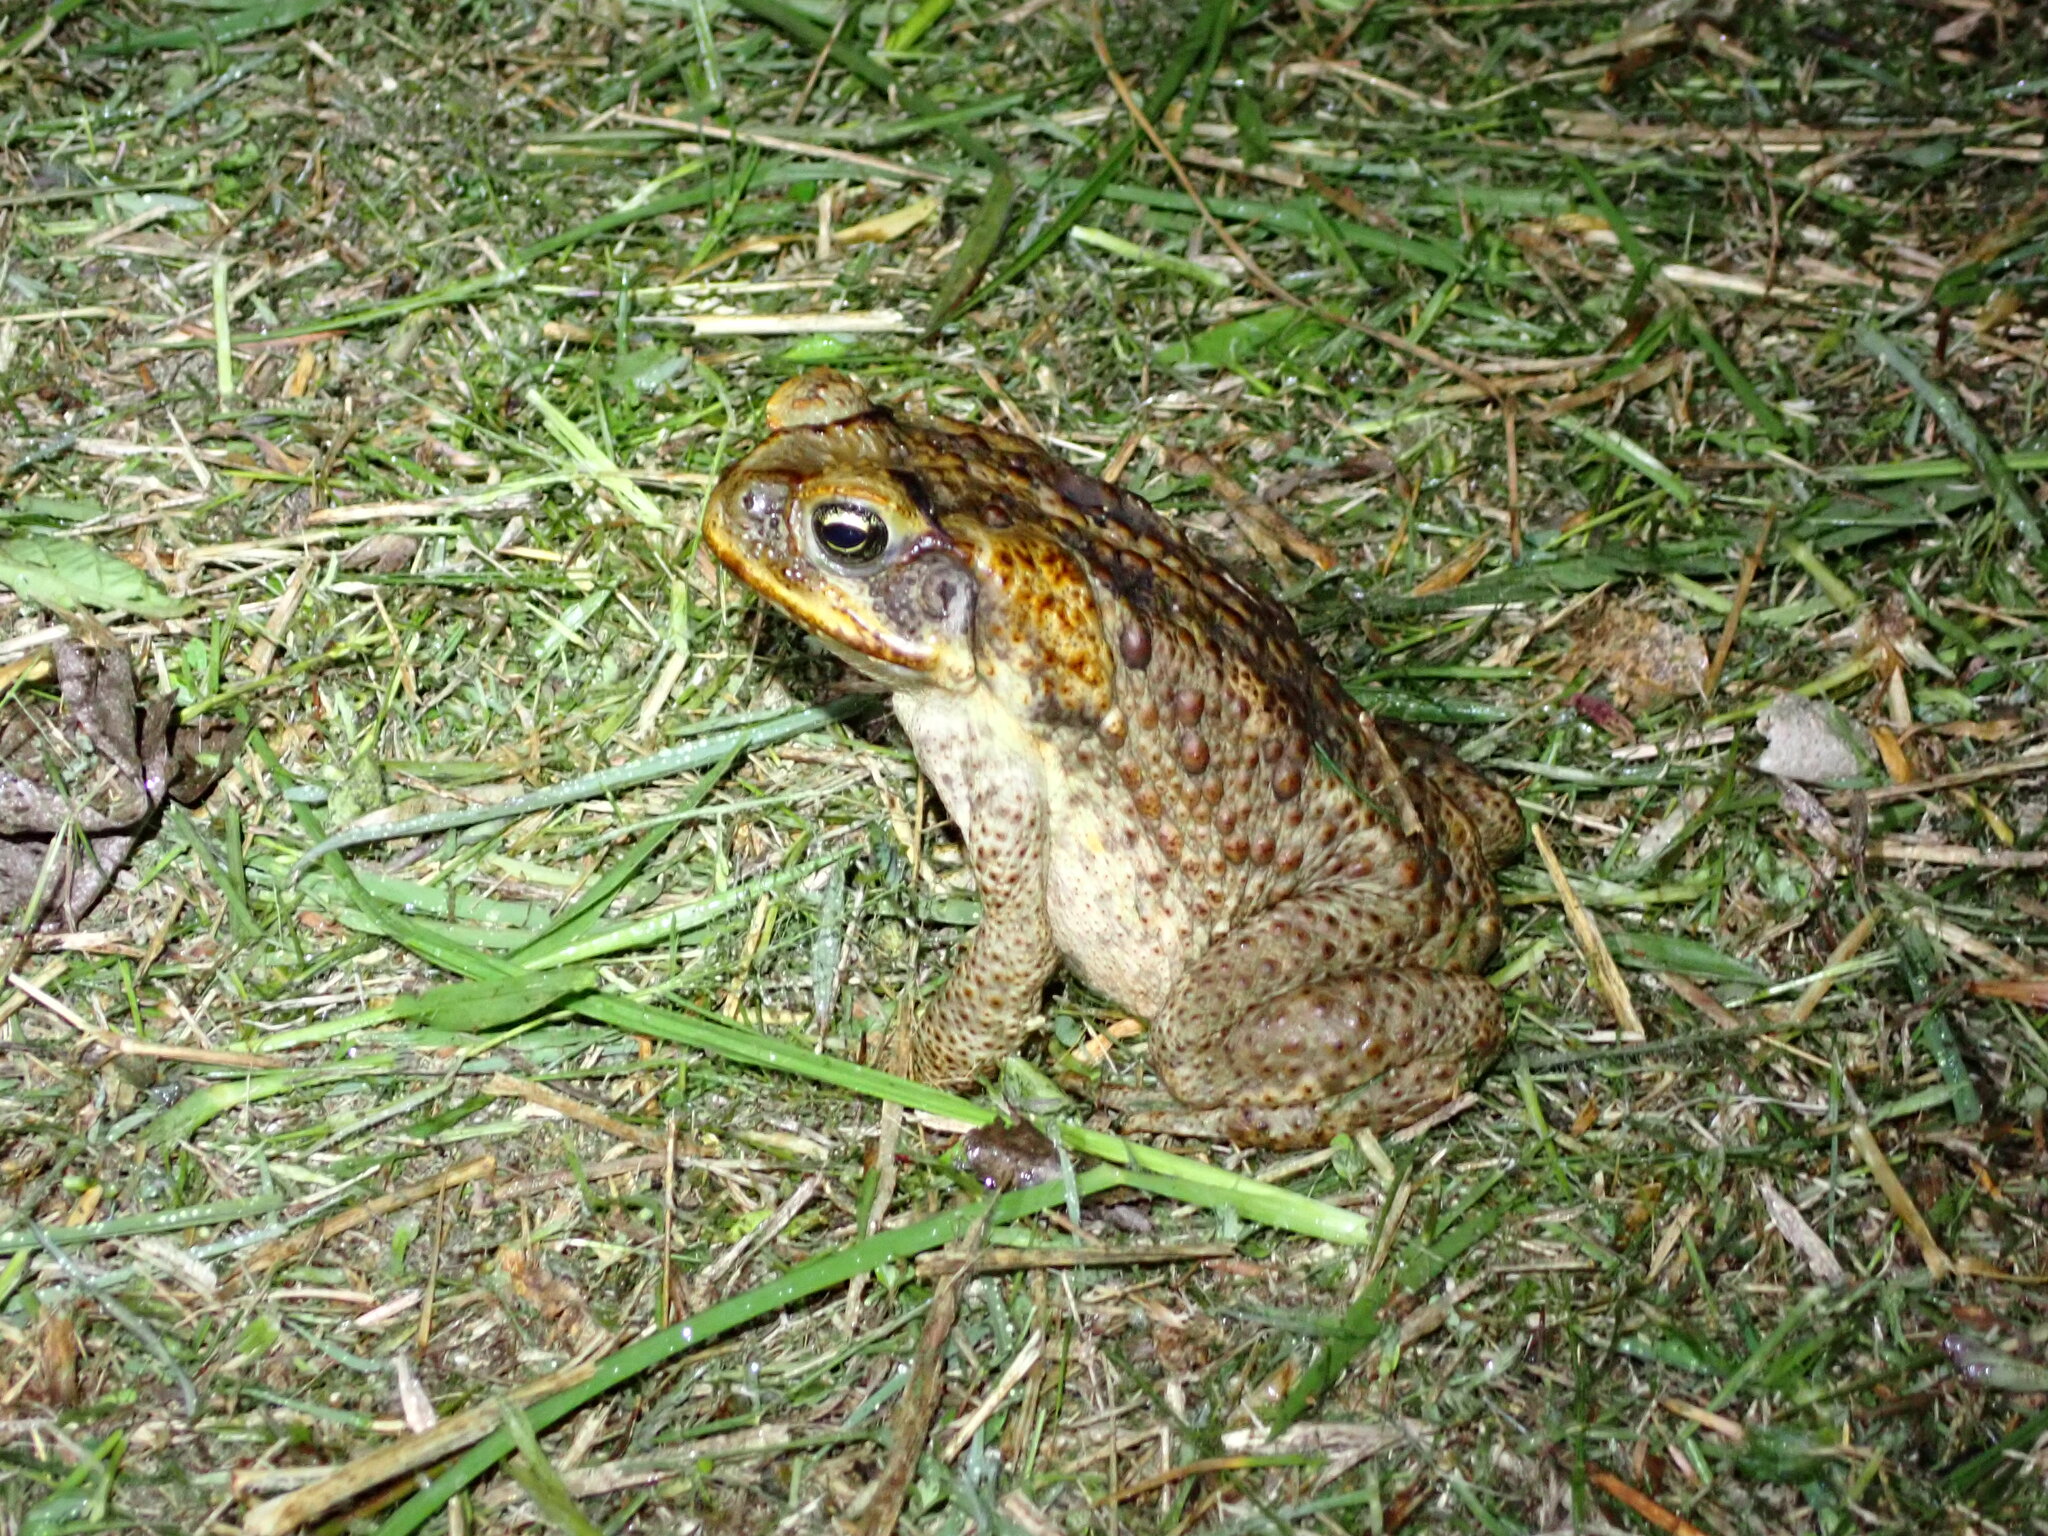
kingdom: Animalia
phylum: Chordata
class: Amphibia
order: Anura
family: Bufonidae
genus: Rhinella
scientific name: Rhinella marina
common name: Cane toad
